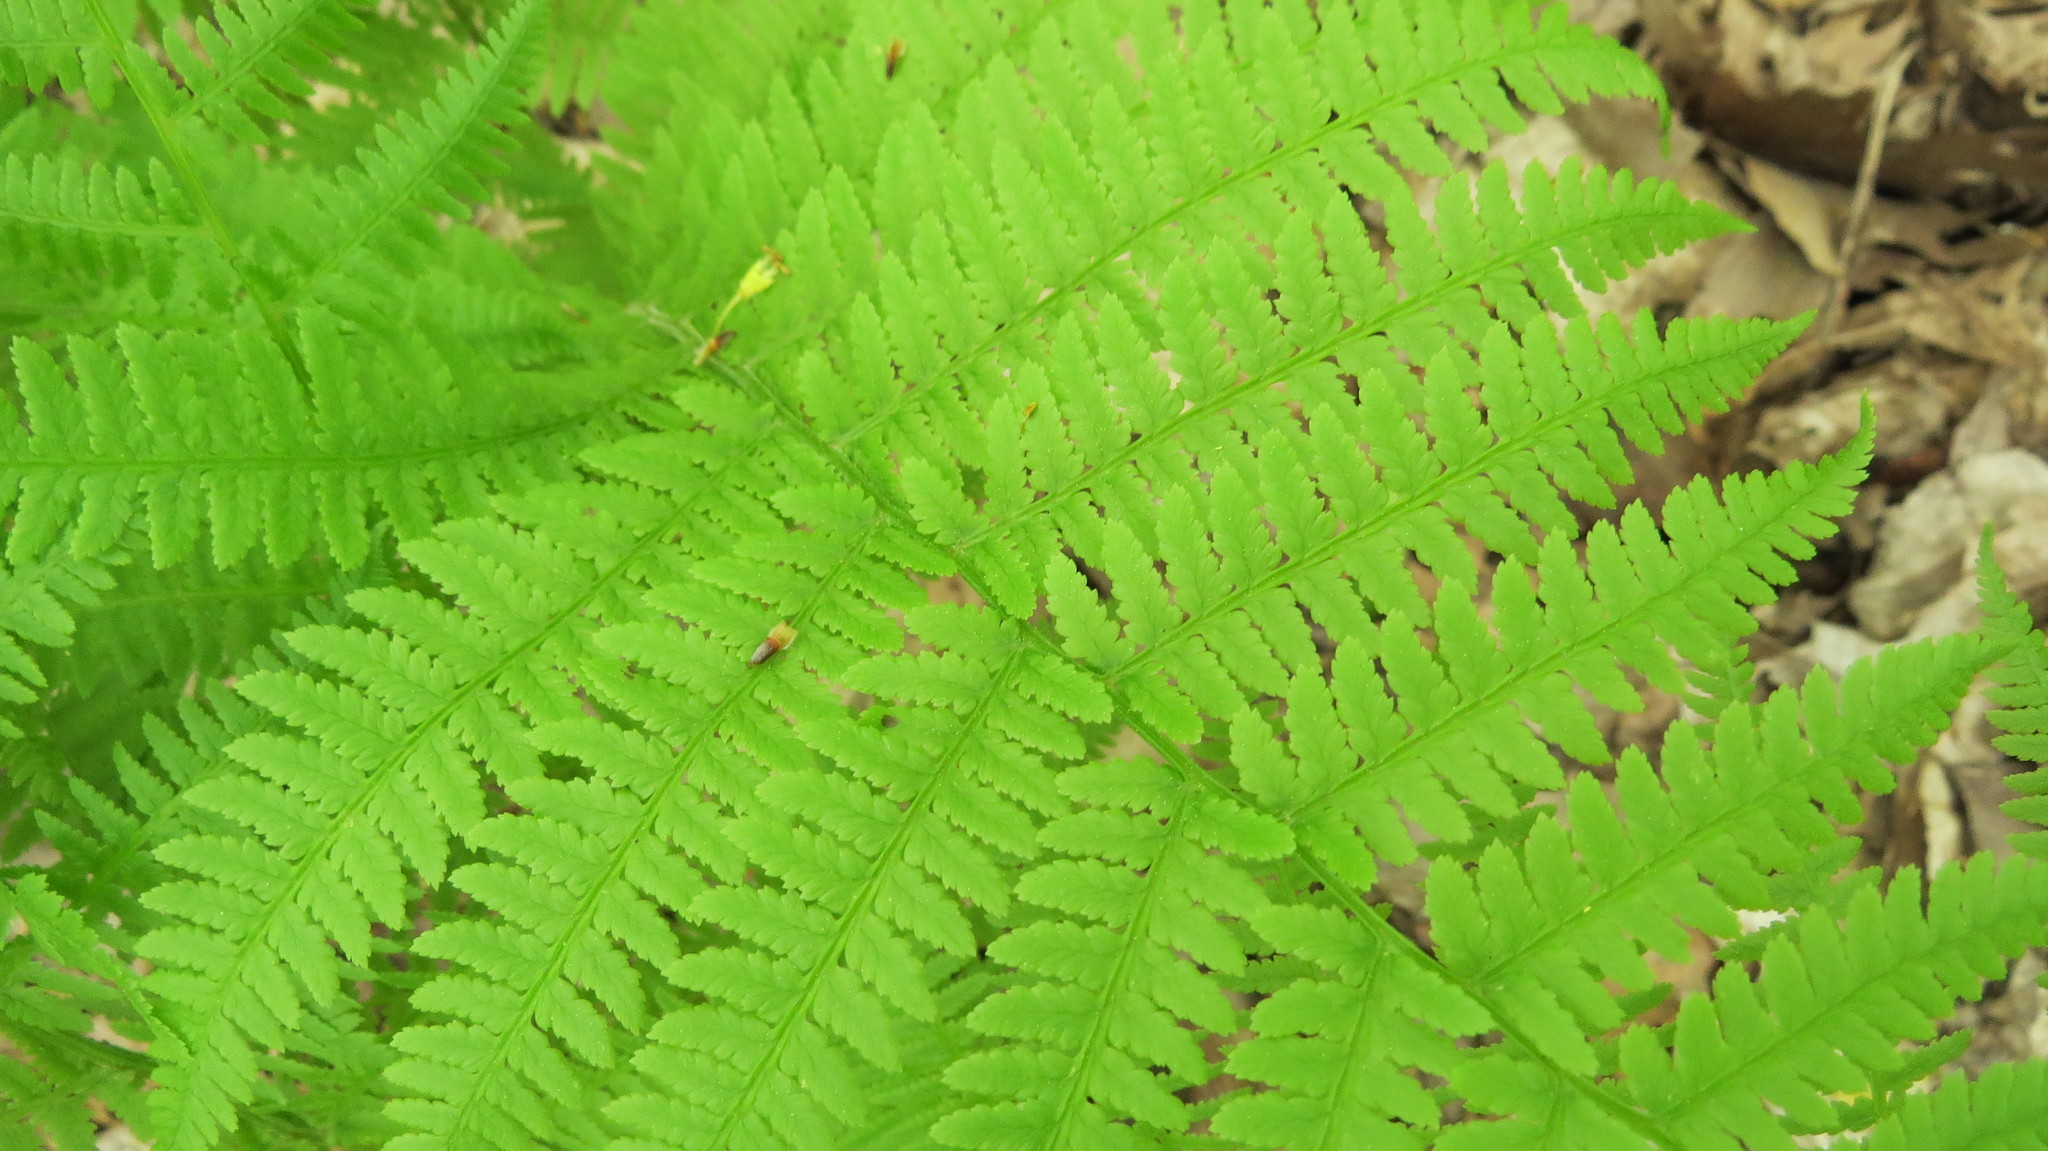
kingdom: Plantae
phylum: Tracheophyta
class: Polypodiopsida
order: Polypodiales
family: Athyriaceae
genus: Athyrium
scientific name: Athyrium angustum
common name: Northern lady fern
